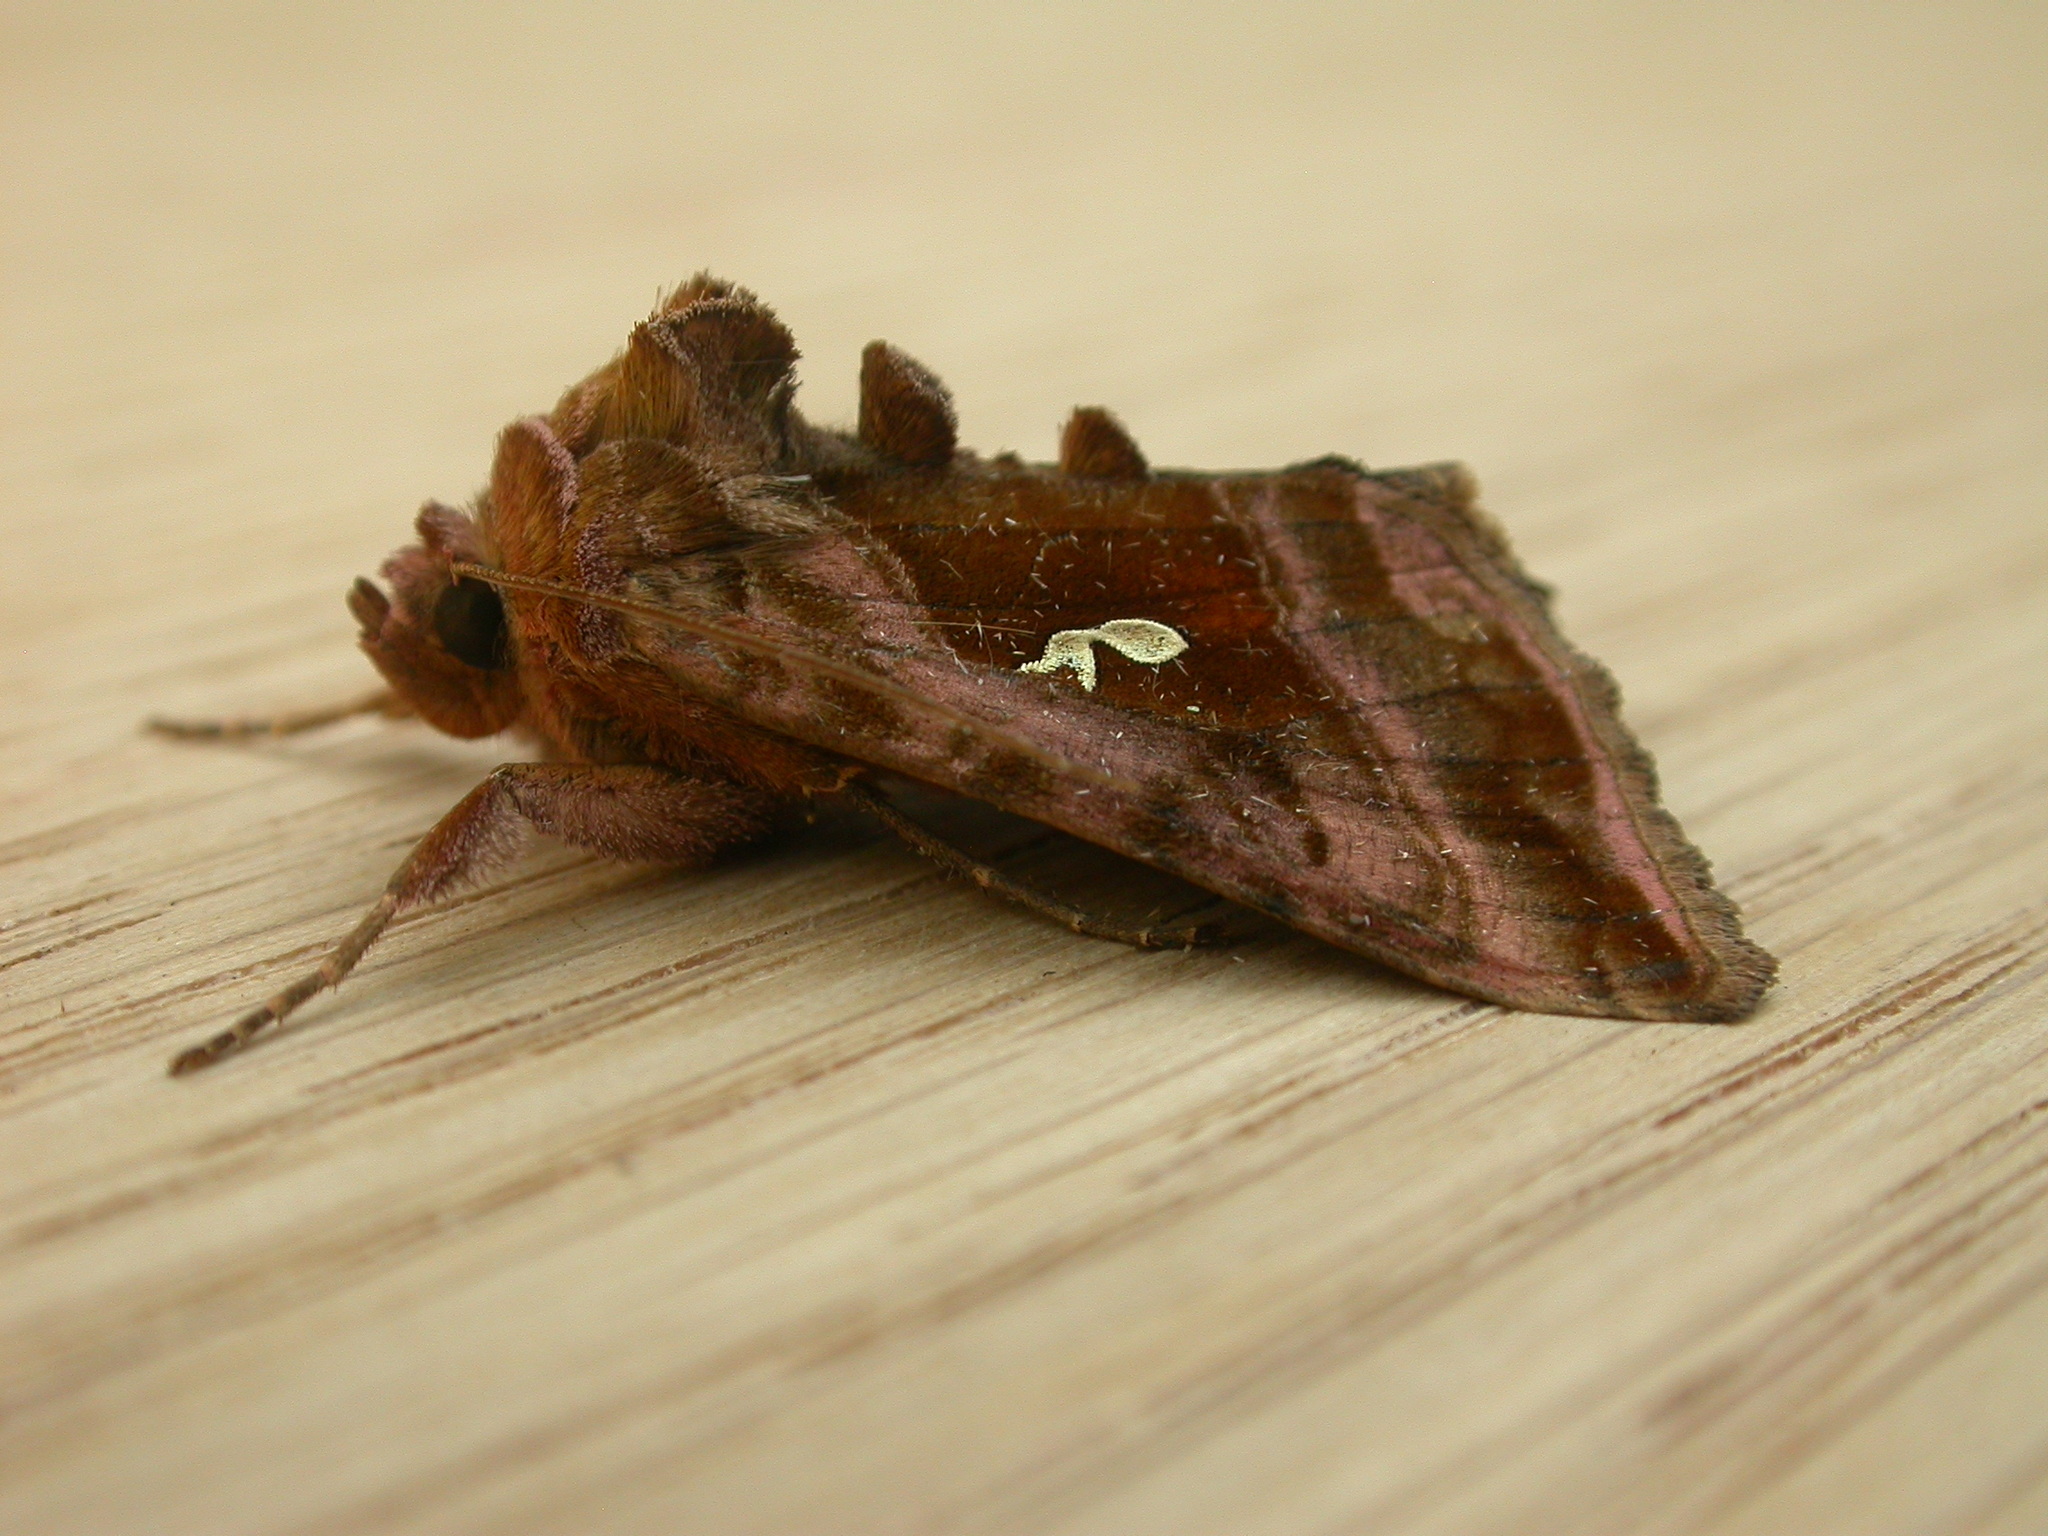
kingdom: Animalia
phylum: Arthropoda
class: Insecta
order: Lepidoptera
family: Noctuidae
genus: Autographa
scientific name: Autographa jota
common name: Plain golden y
